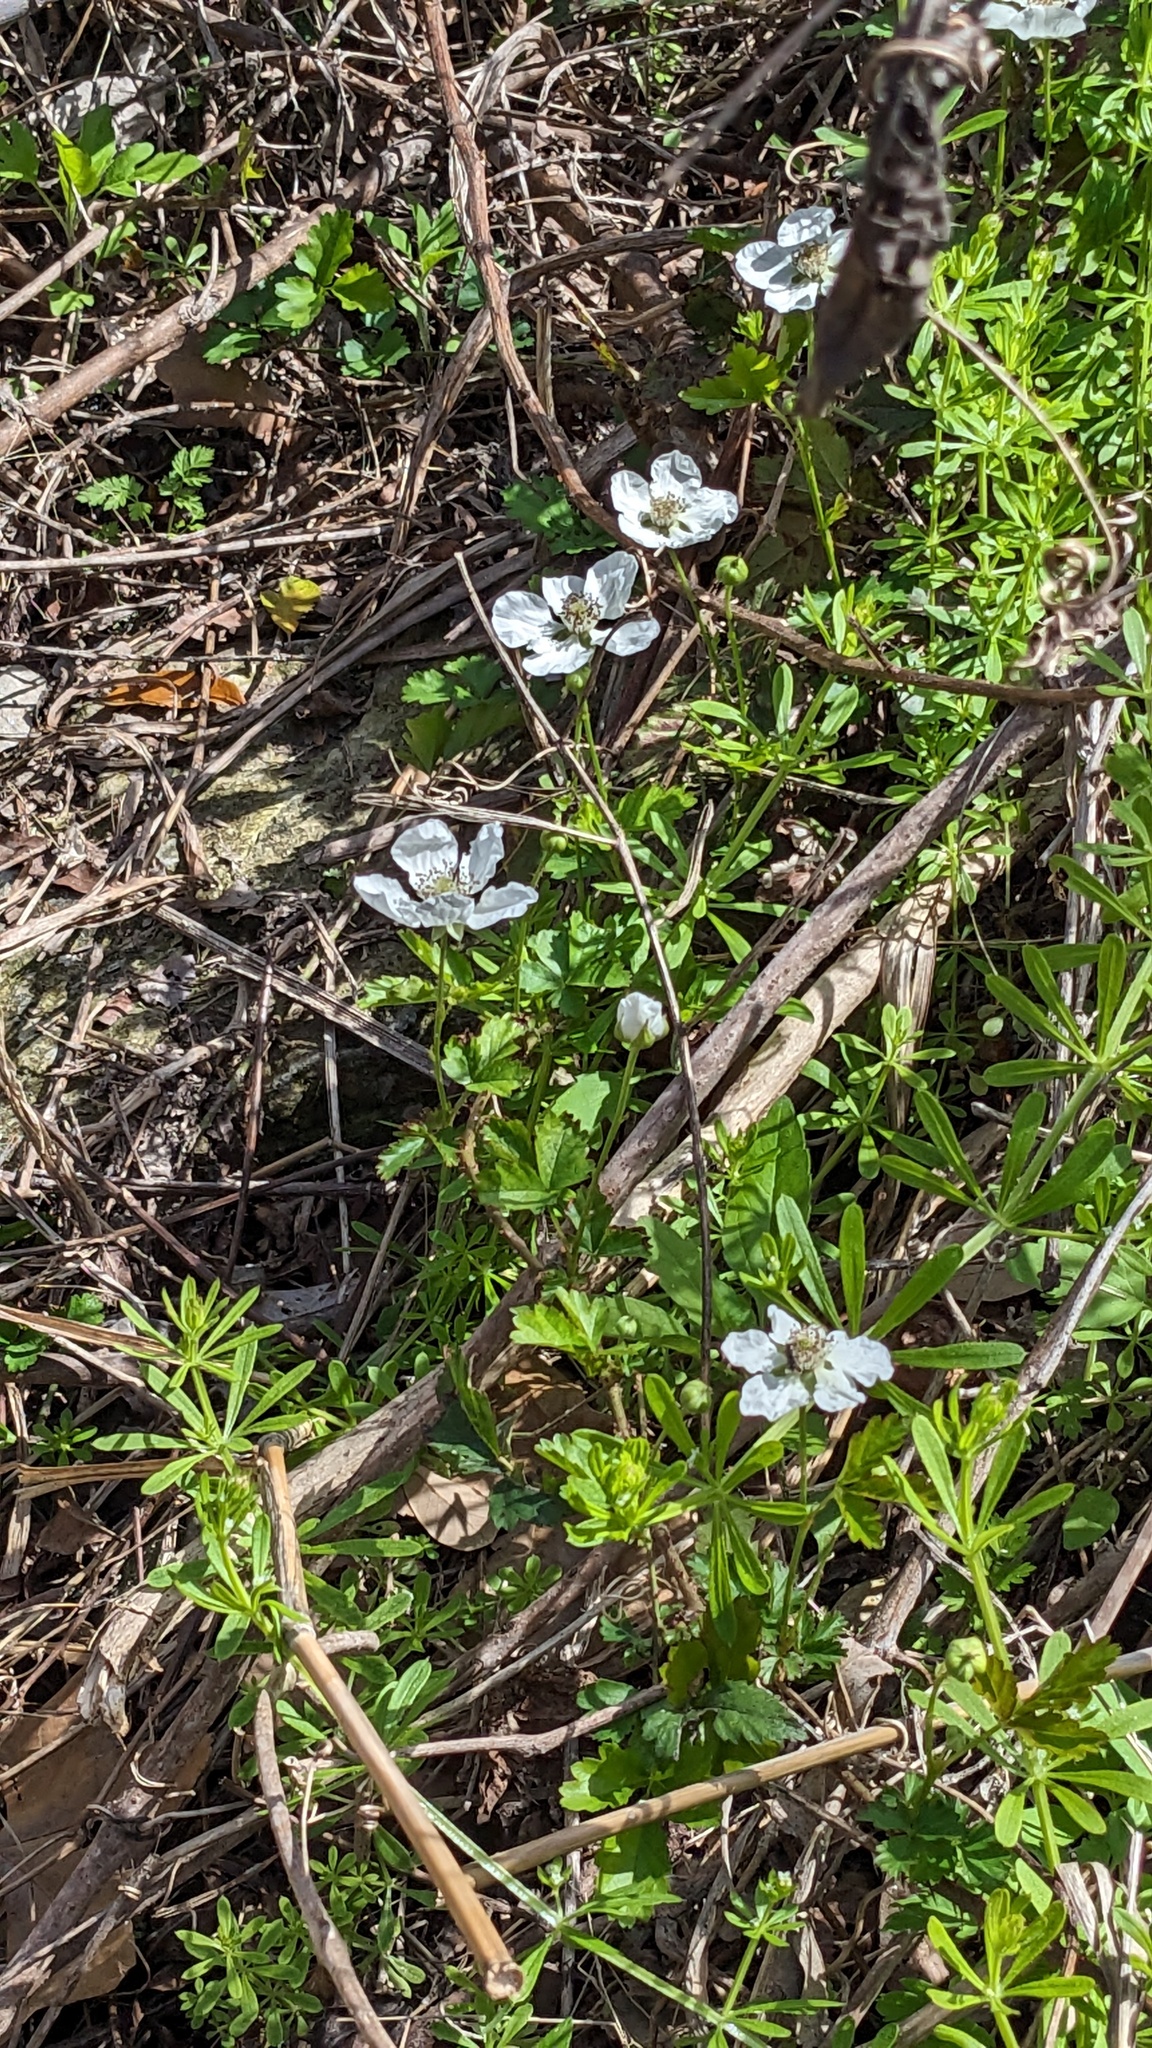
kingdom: Plantae
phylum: Tracheophyta
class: Magnoliopsida
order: Rosales
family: Rosaceae
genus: Rubus
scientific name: Rubus trivialis
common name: Southern dewberry
